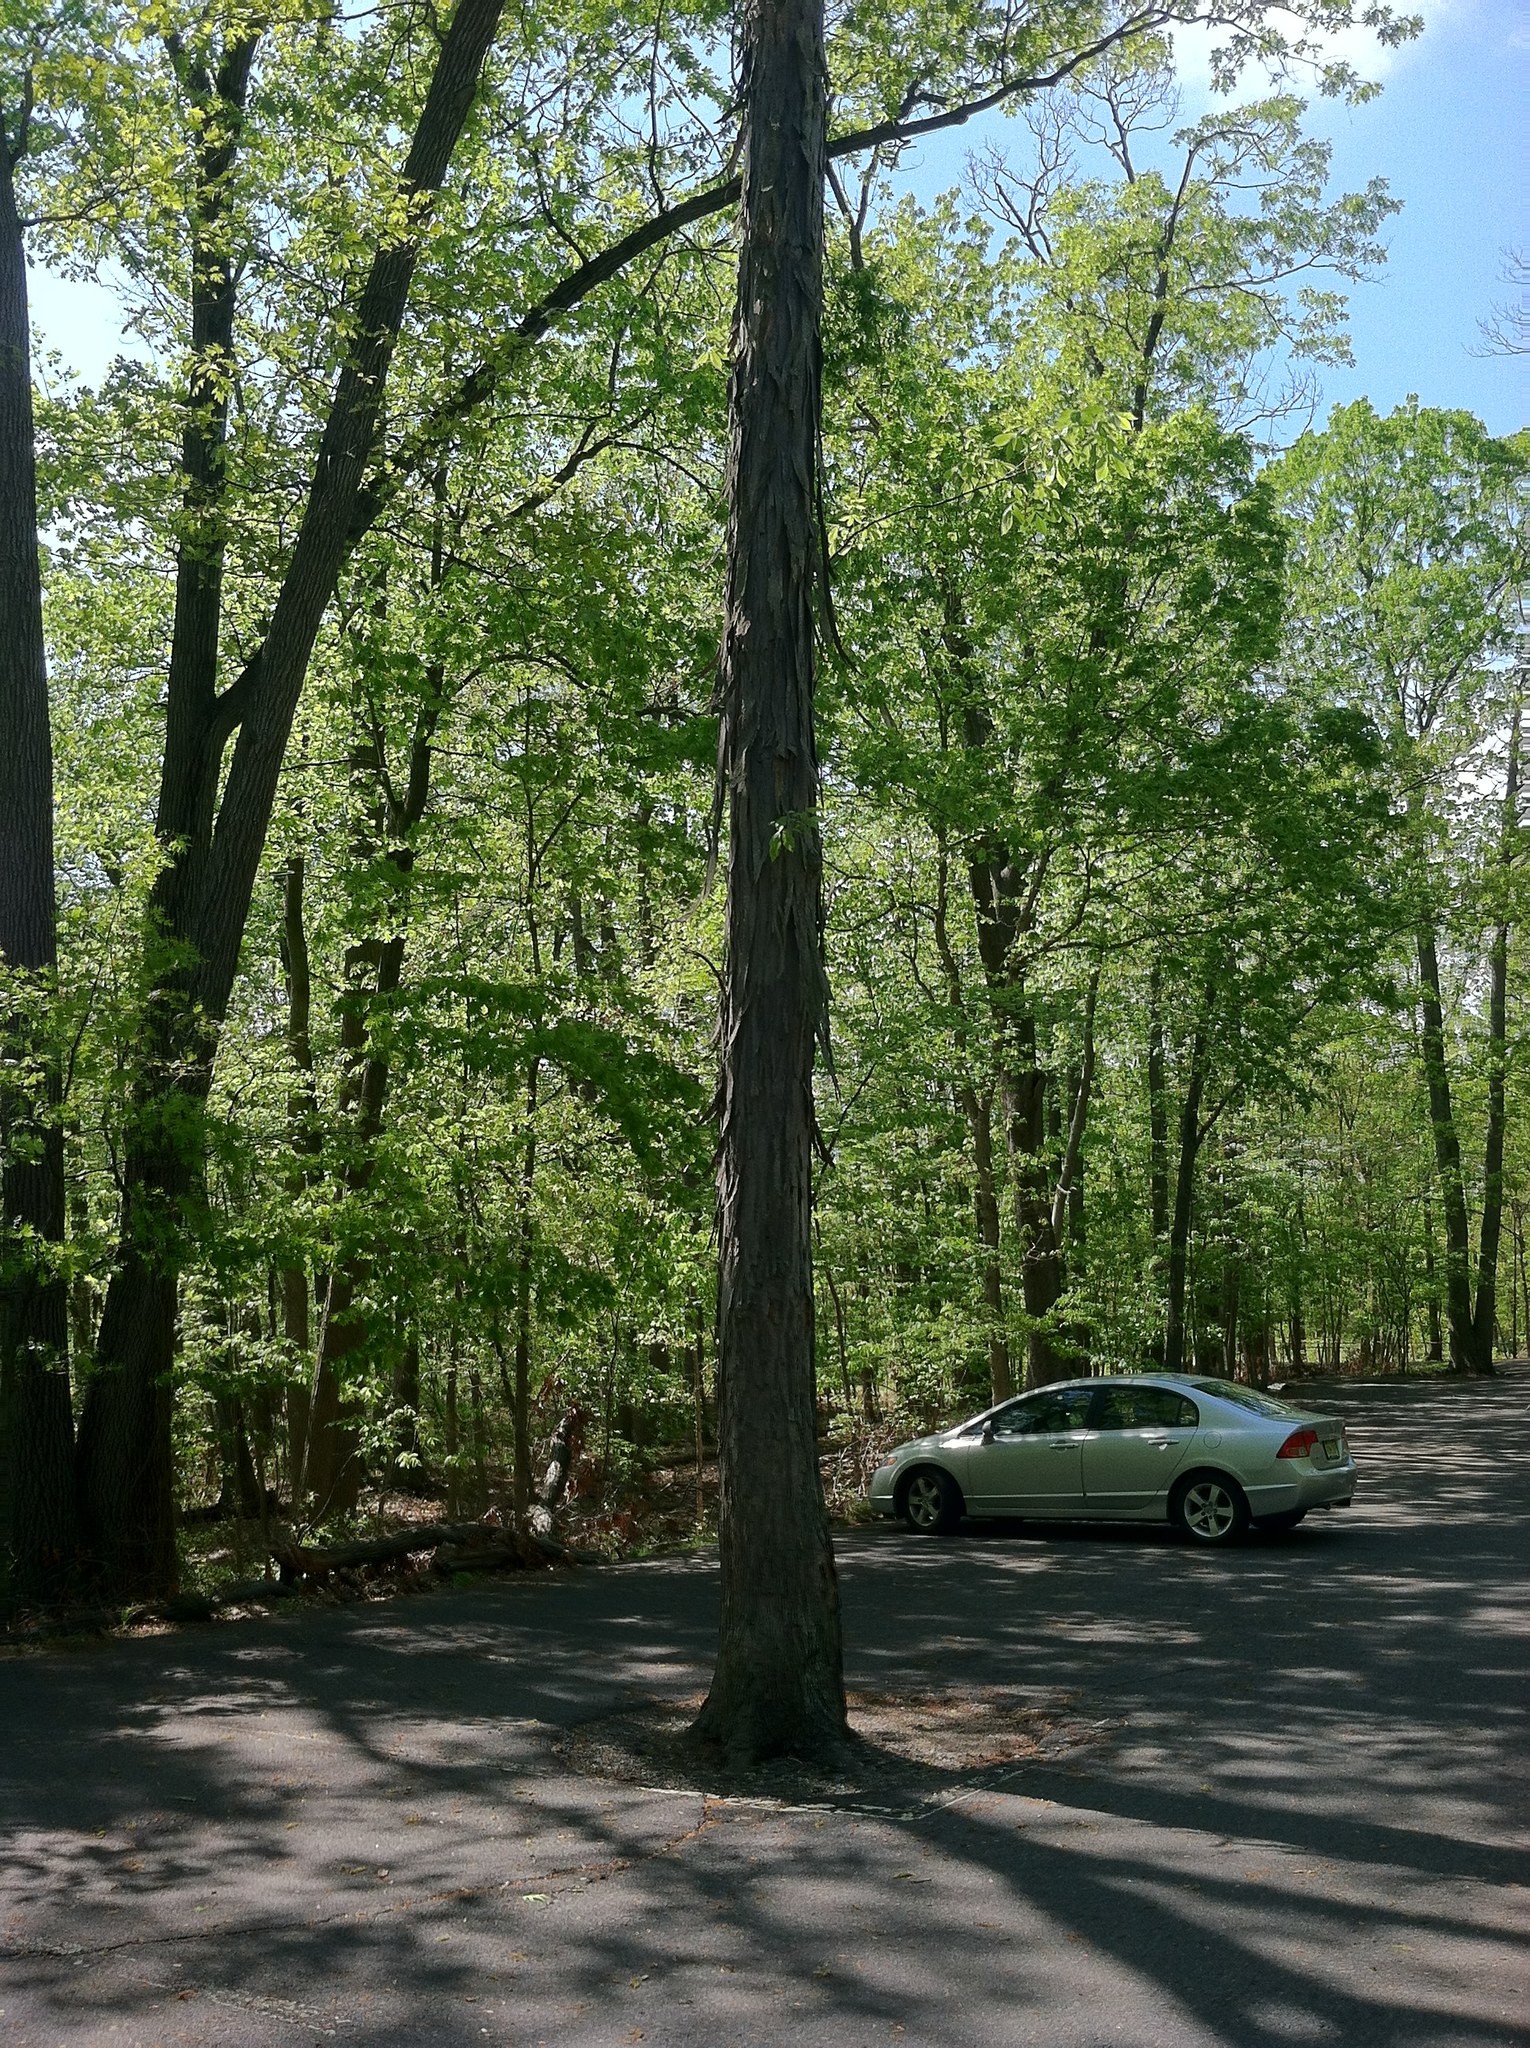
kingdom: Plantae
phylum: Tracheophyta
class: Magnoliopsida
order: Fagales
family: Juglandaceae
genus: Carya
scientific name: Carya ovata
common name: Shagbark hickory
